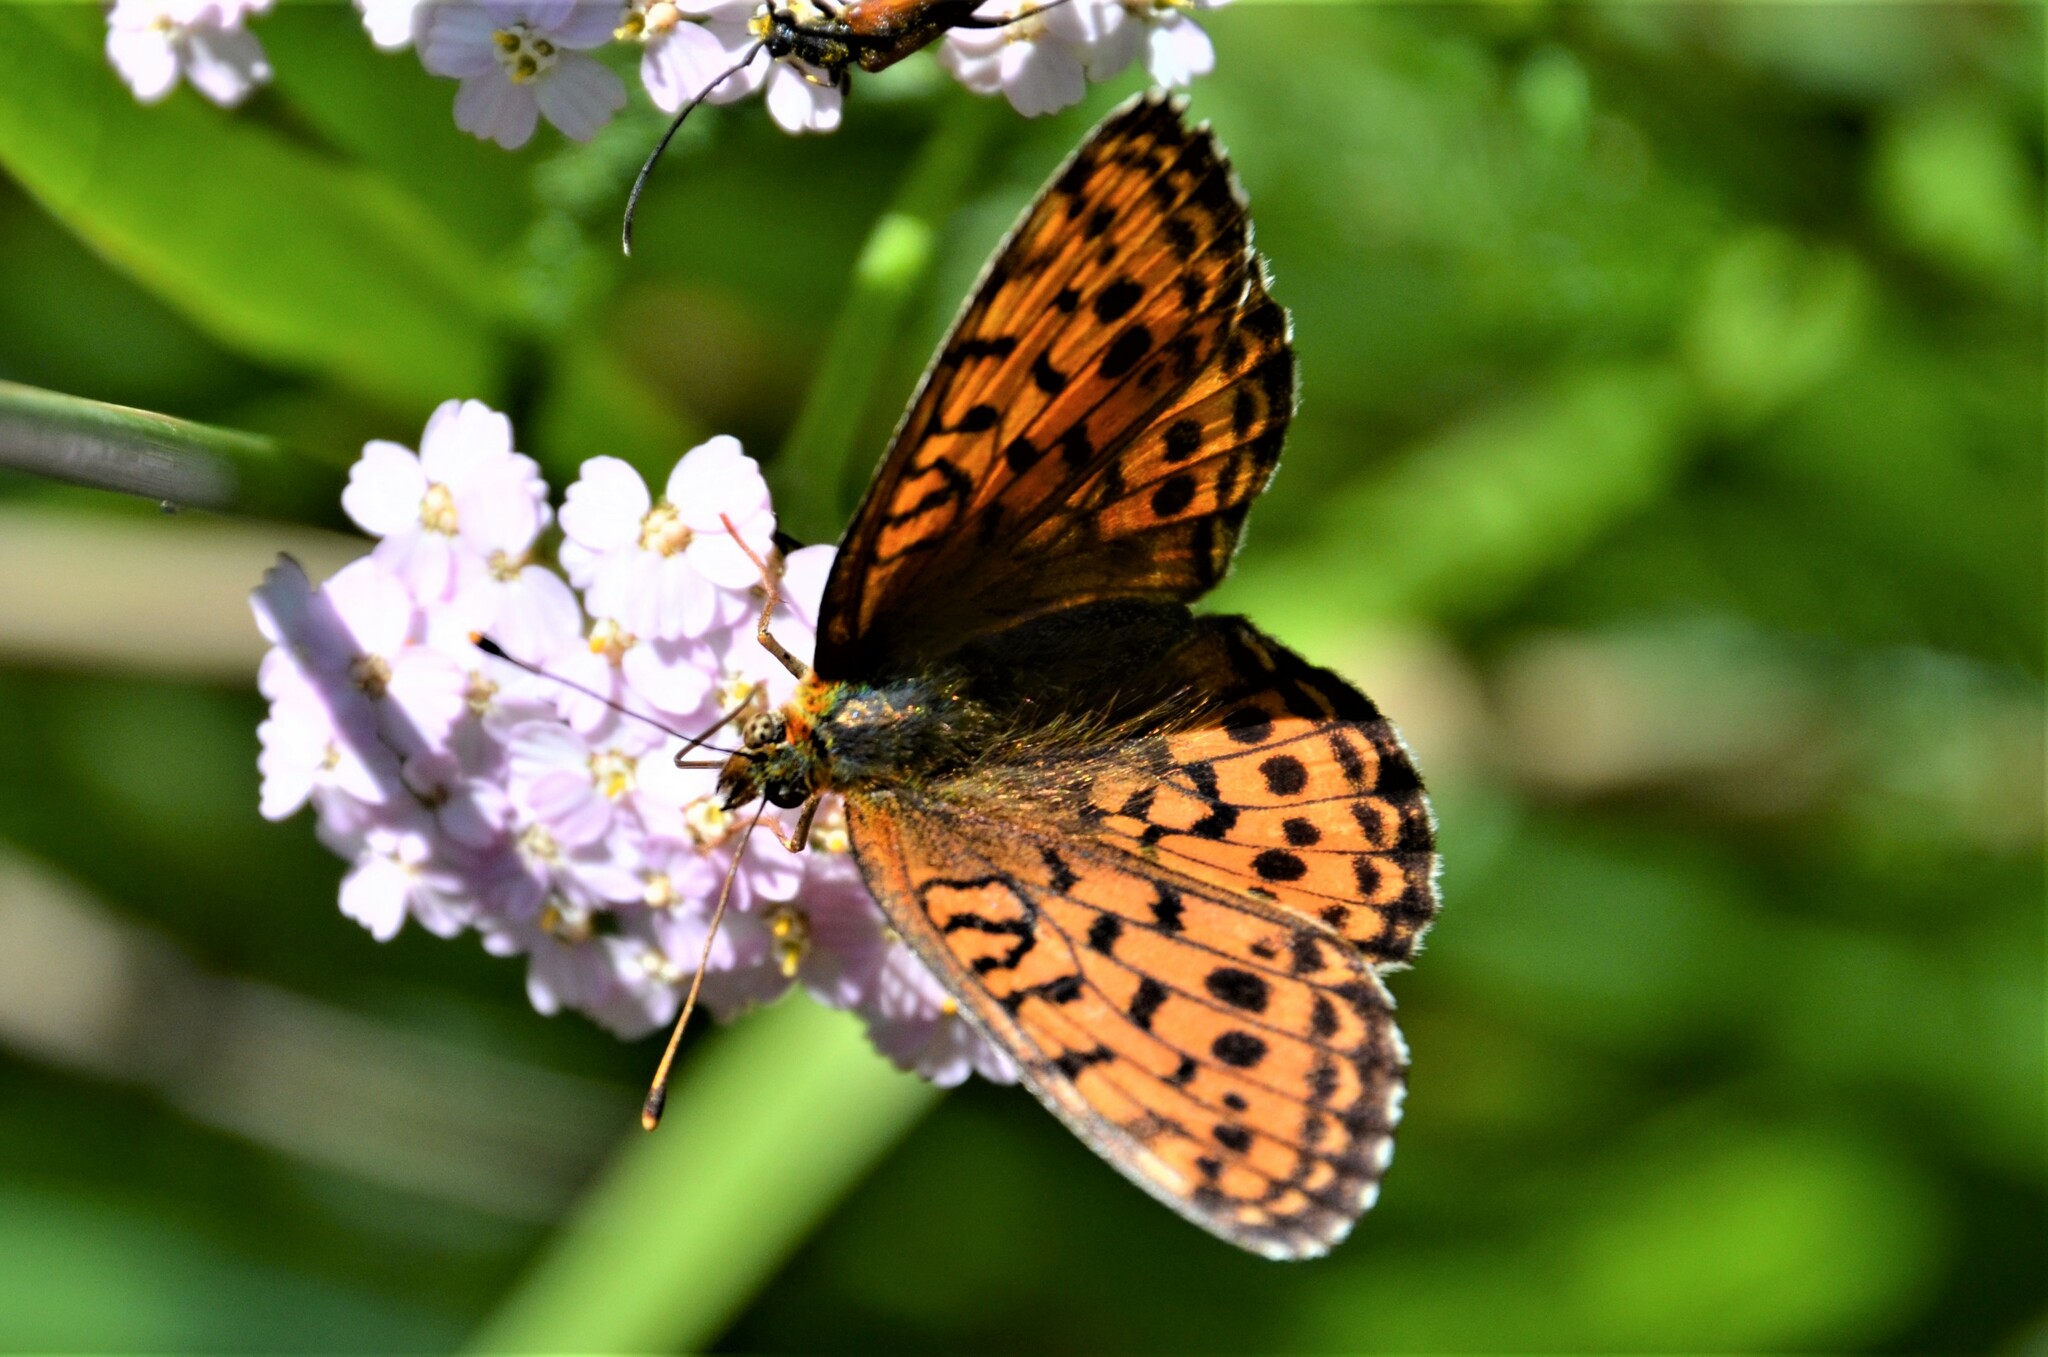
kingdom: Animalia
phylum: Arthropoda
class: Insecta
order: Lepidoptera
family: Nymphalidae
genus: Brenthis
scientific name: Brenthis ino
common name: Lesser marbled fritillary
